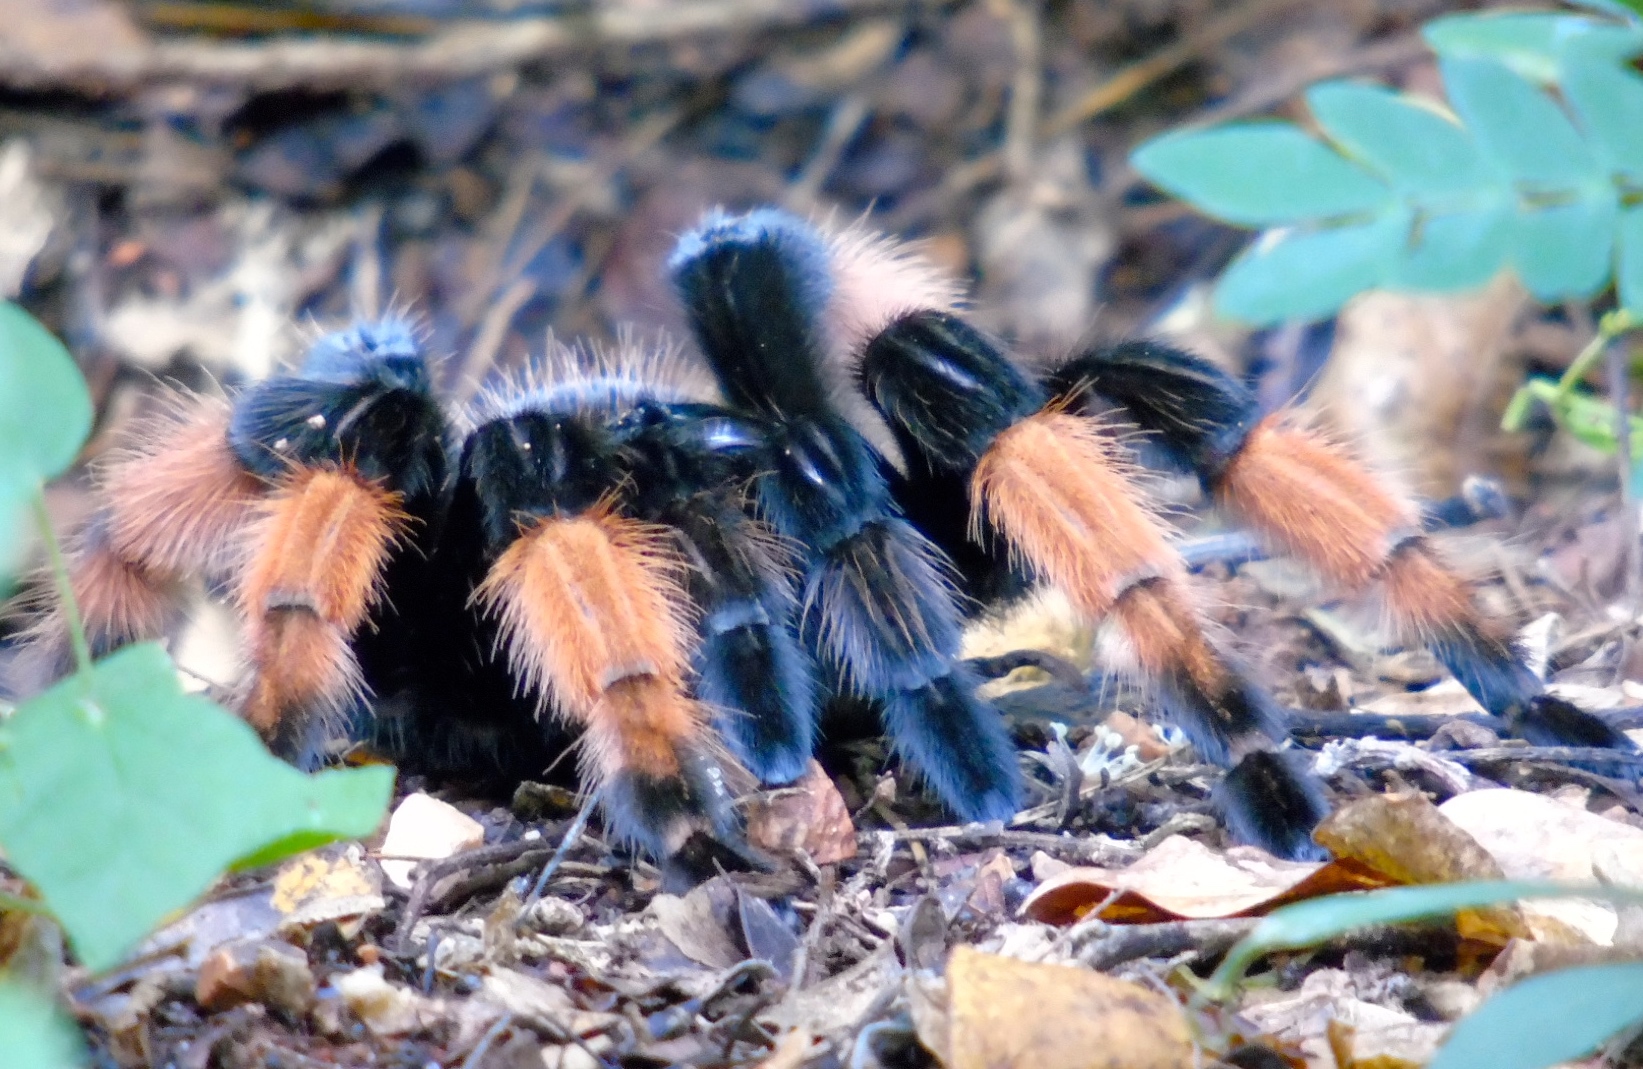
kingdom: Animalia
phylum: Arthropoda
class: Arachnida
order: Araneae
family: Theraphosidae
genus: Brachypelma
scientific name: Brachypelma emilia
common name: Mexican redleg
